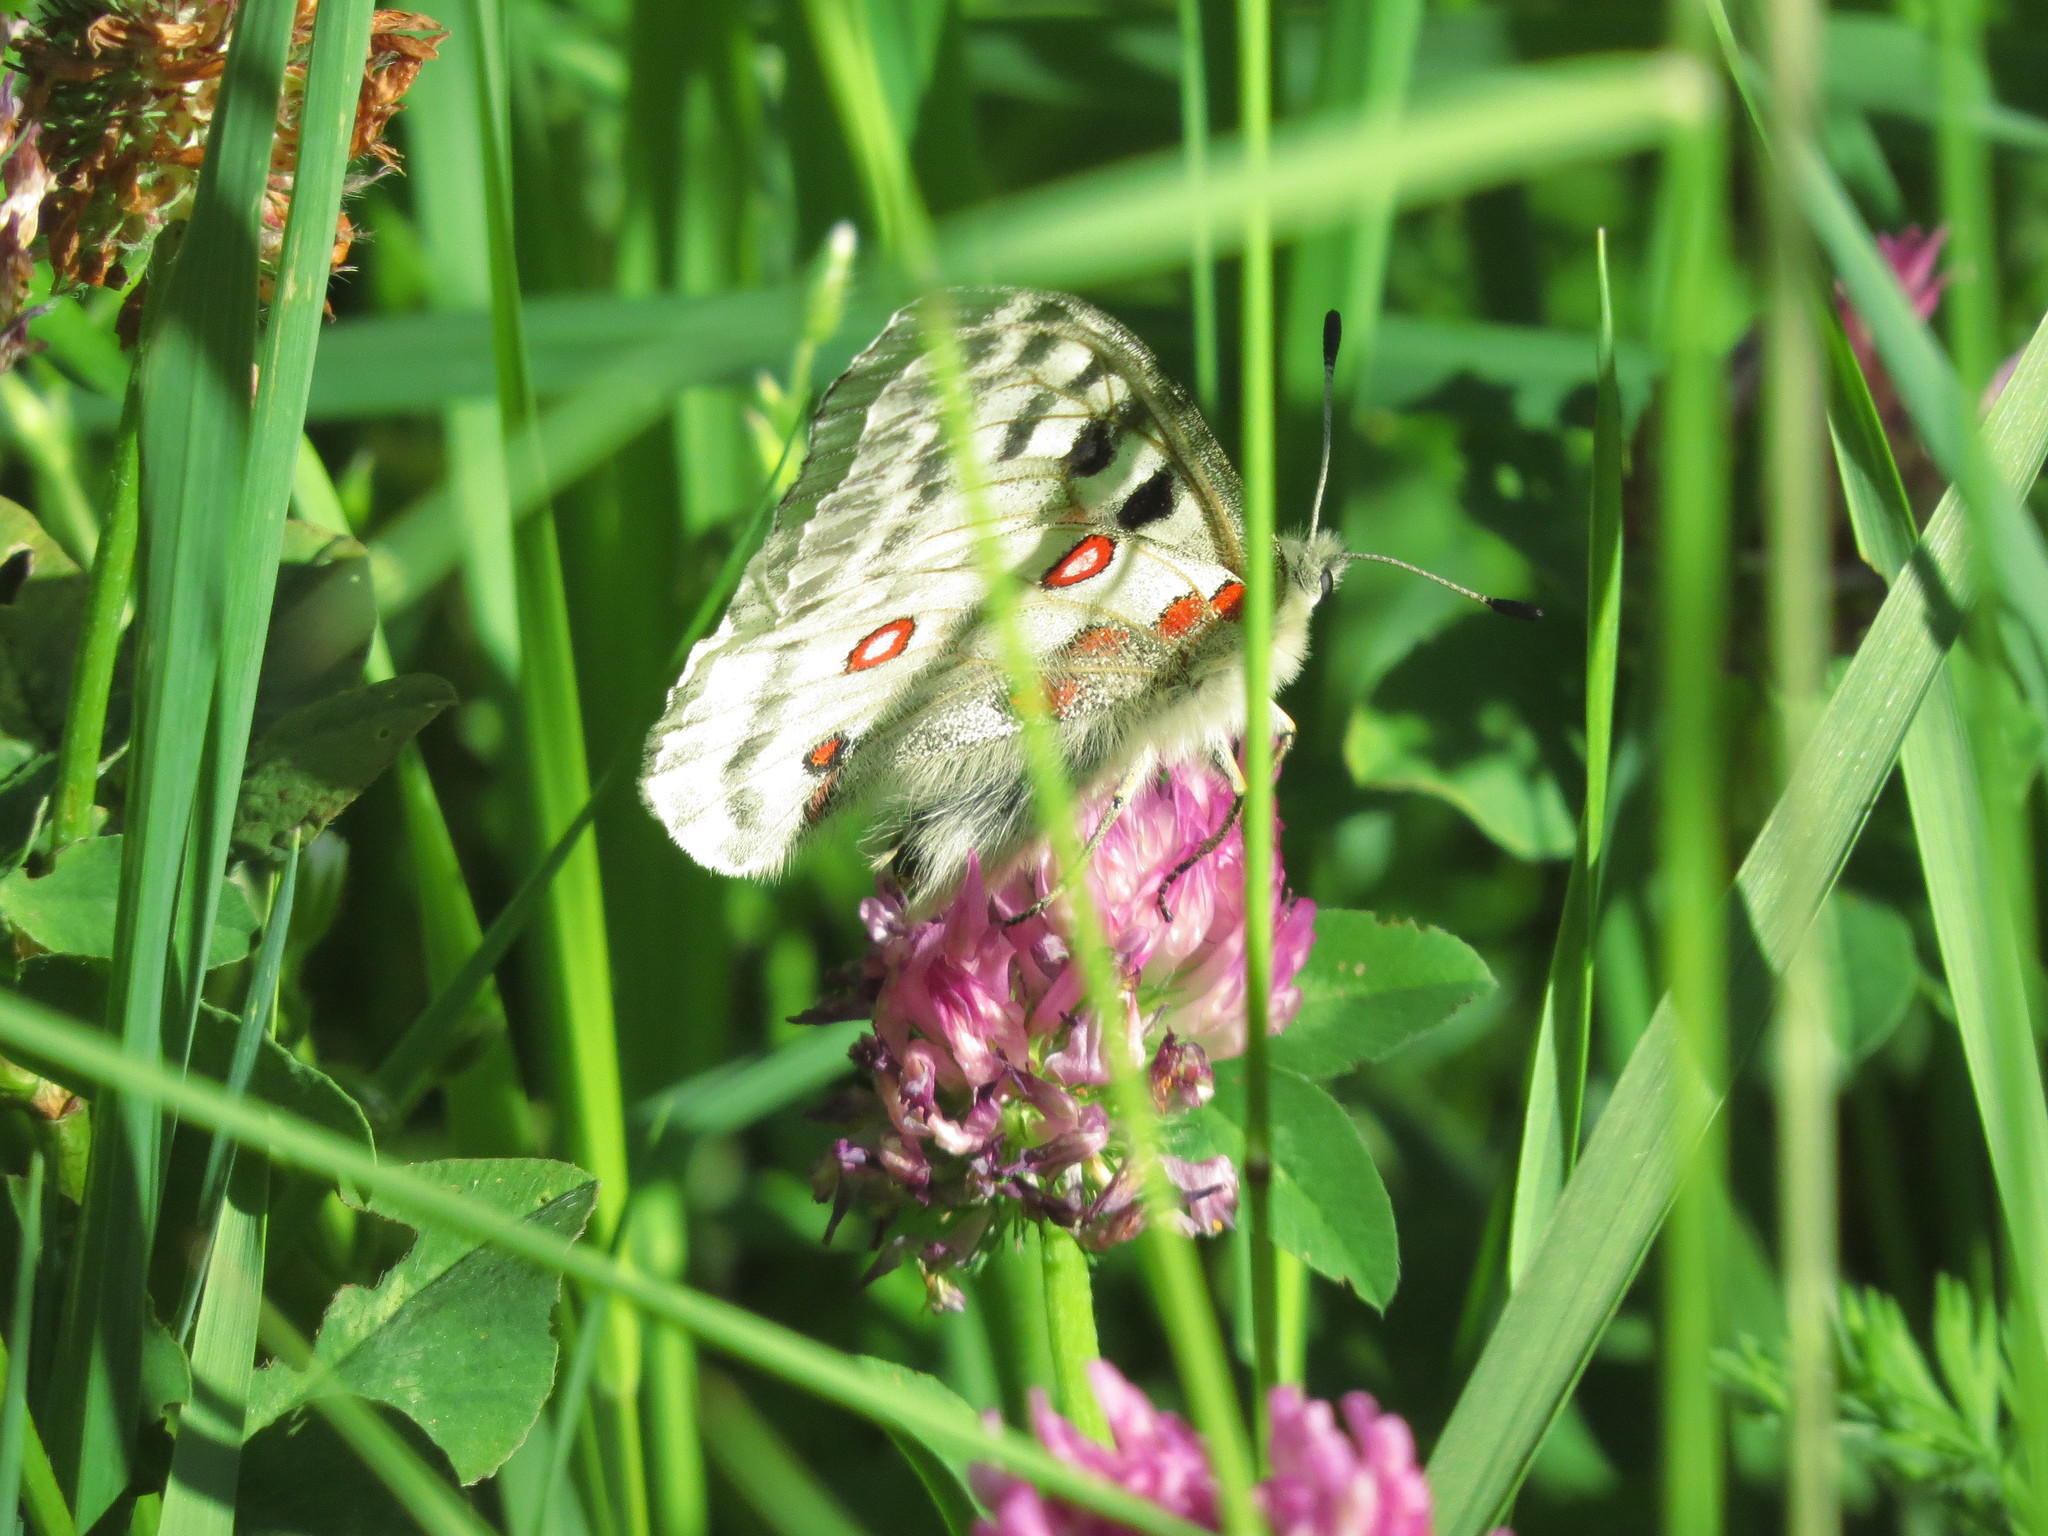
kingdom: Animalia
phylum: Arthropoda
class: Insecta
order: Lepidoptera
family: Papilionidae
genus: Parnassius
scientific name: Parnassius apollo
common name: Apollo
